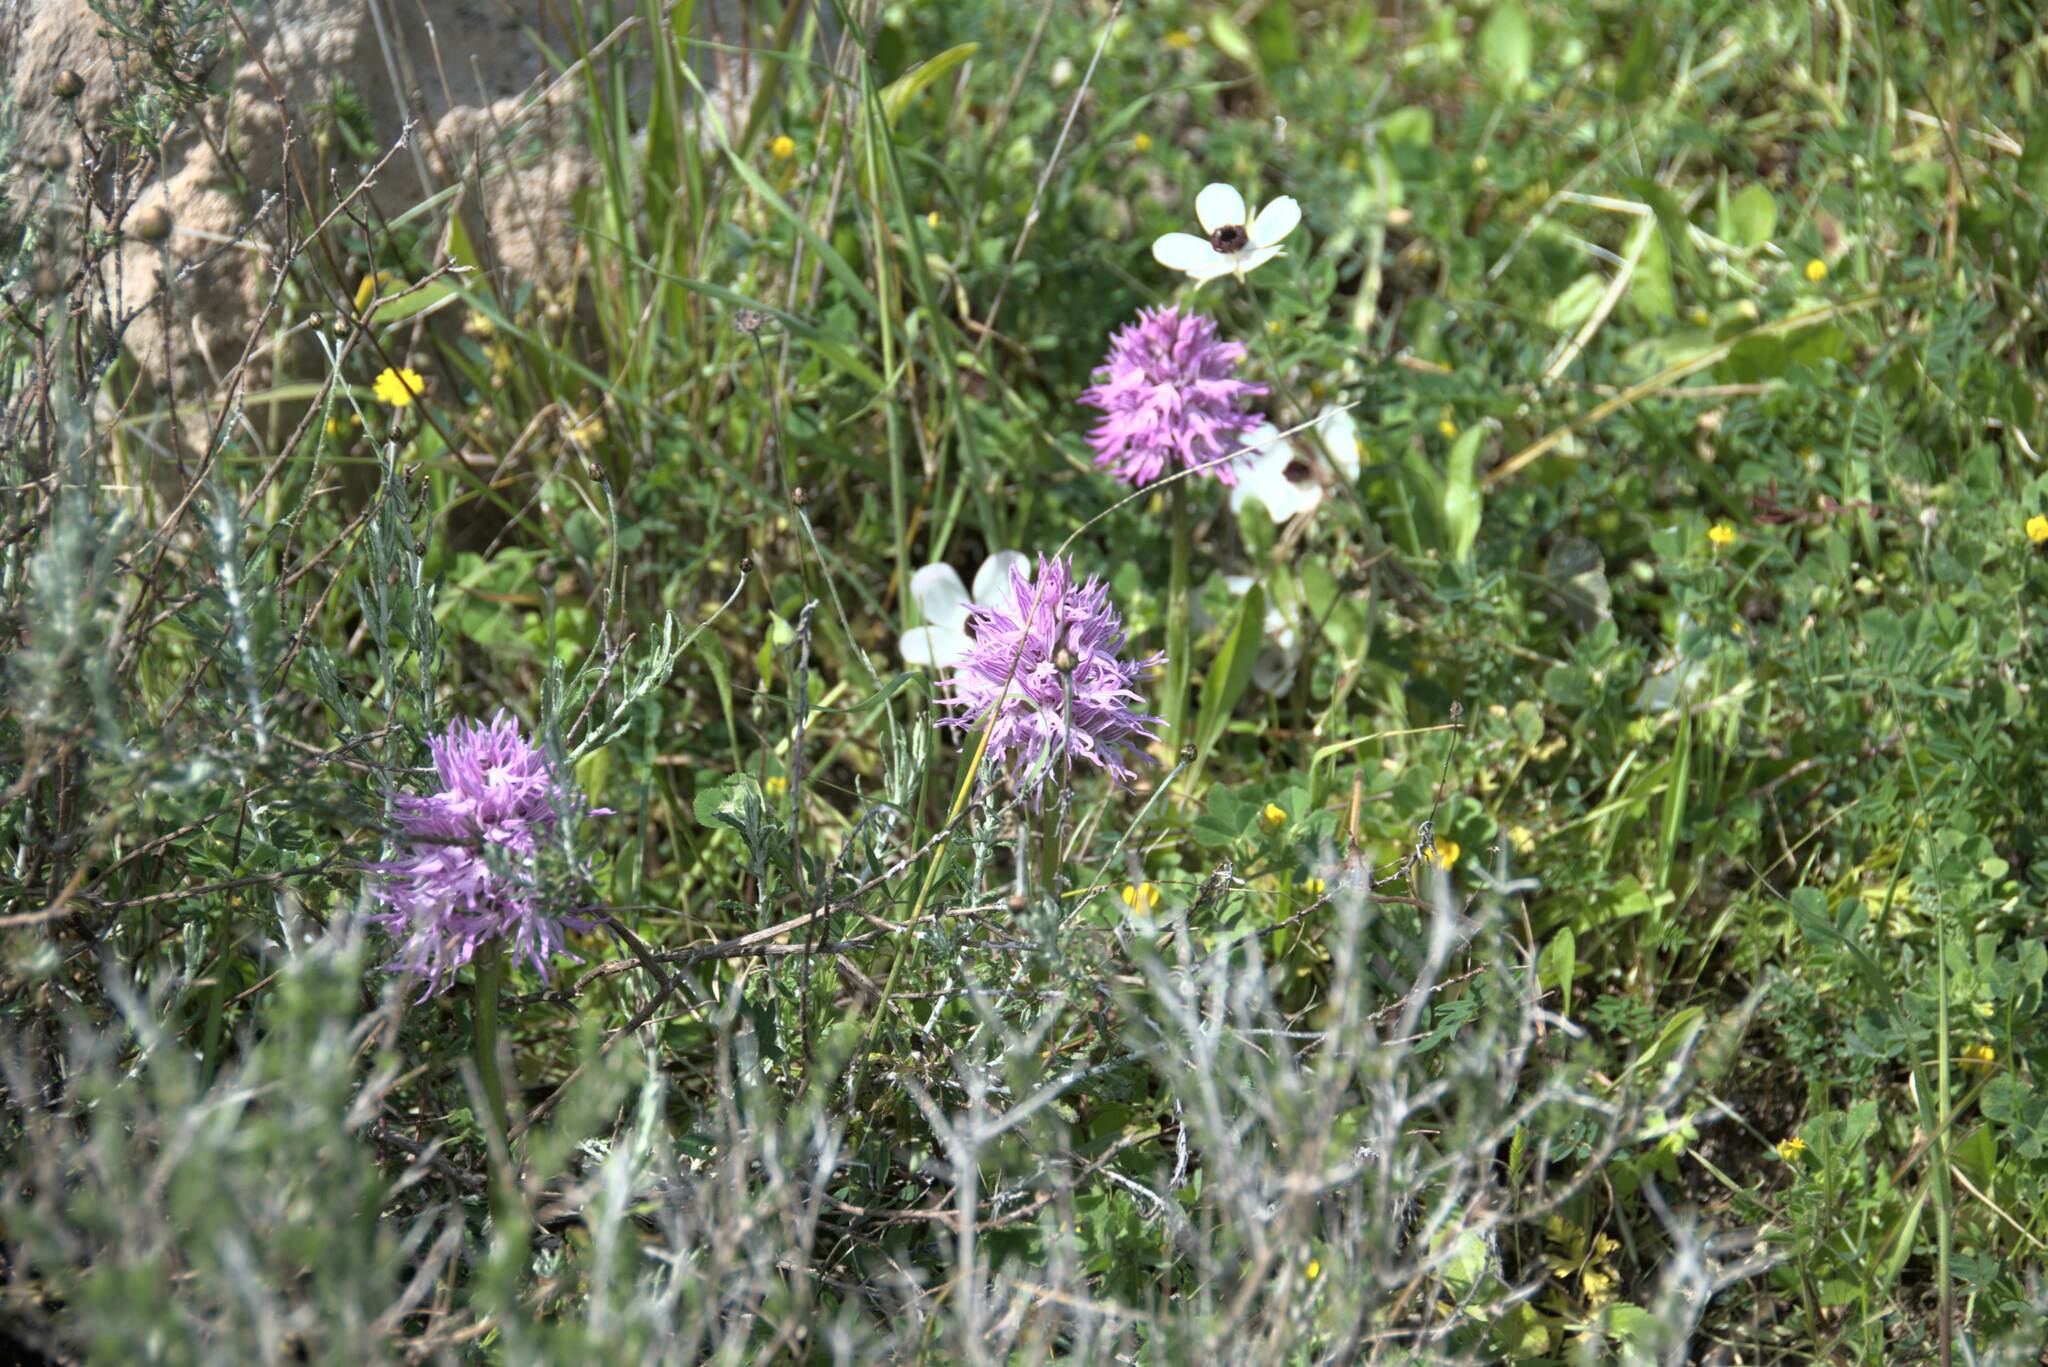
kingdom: Plantae
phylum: Tracheophyta
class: Liliopsida
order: Asparagales
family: Orchidaceae
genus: Orchis
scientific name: Orchis italica
